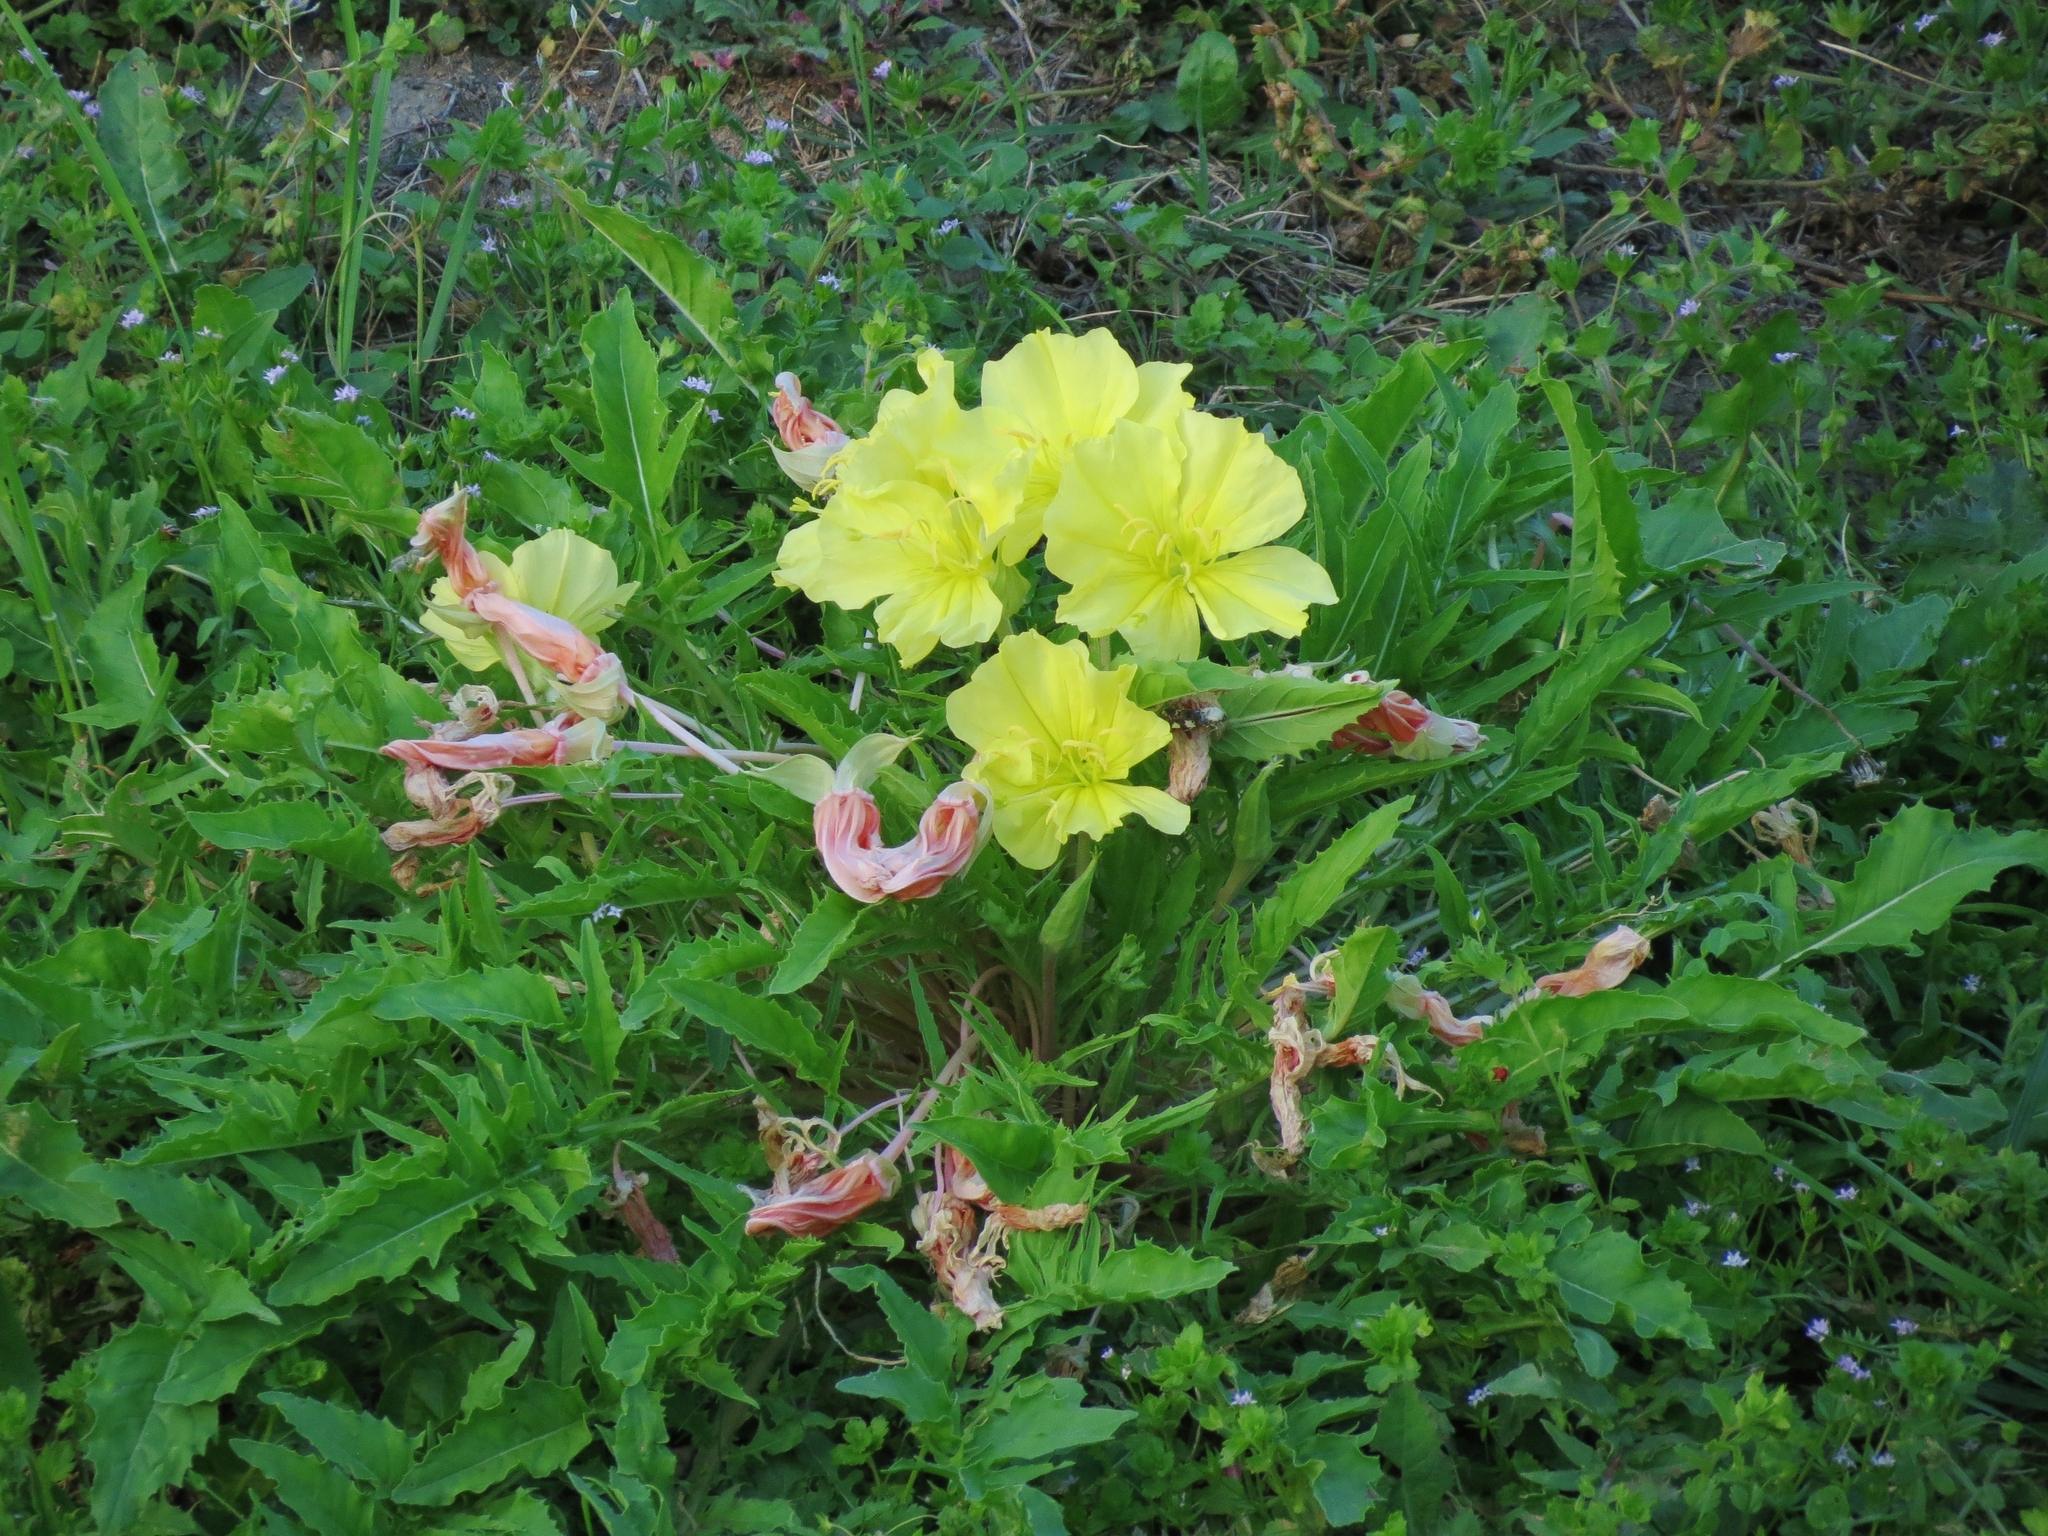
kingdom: Plantae
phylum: Tracheophyta
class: Magnoliopsida
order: Myrtales
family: Onagraceae
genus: Oenothera
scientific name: Oenothera triloba
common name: Sessile evening-primrose
